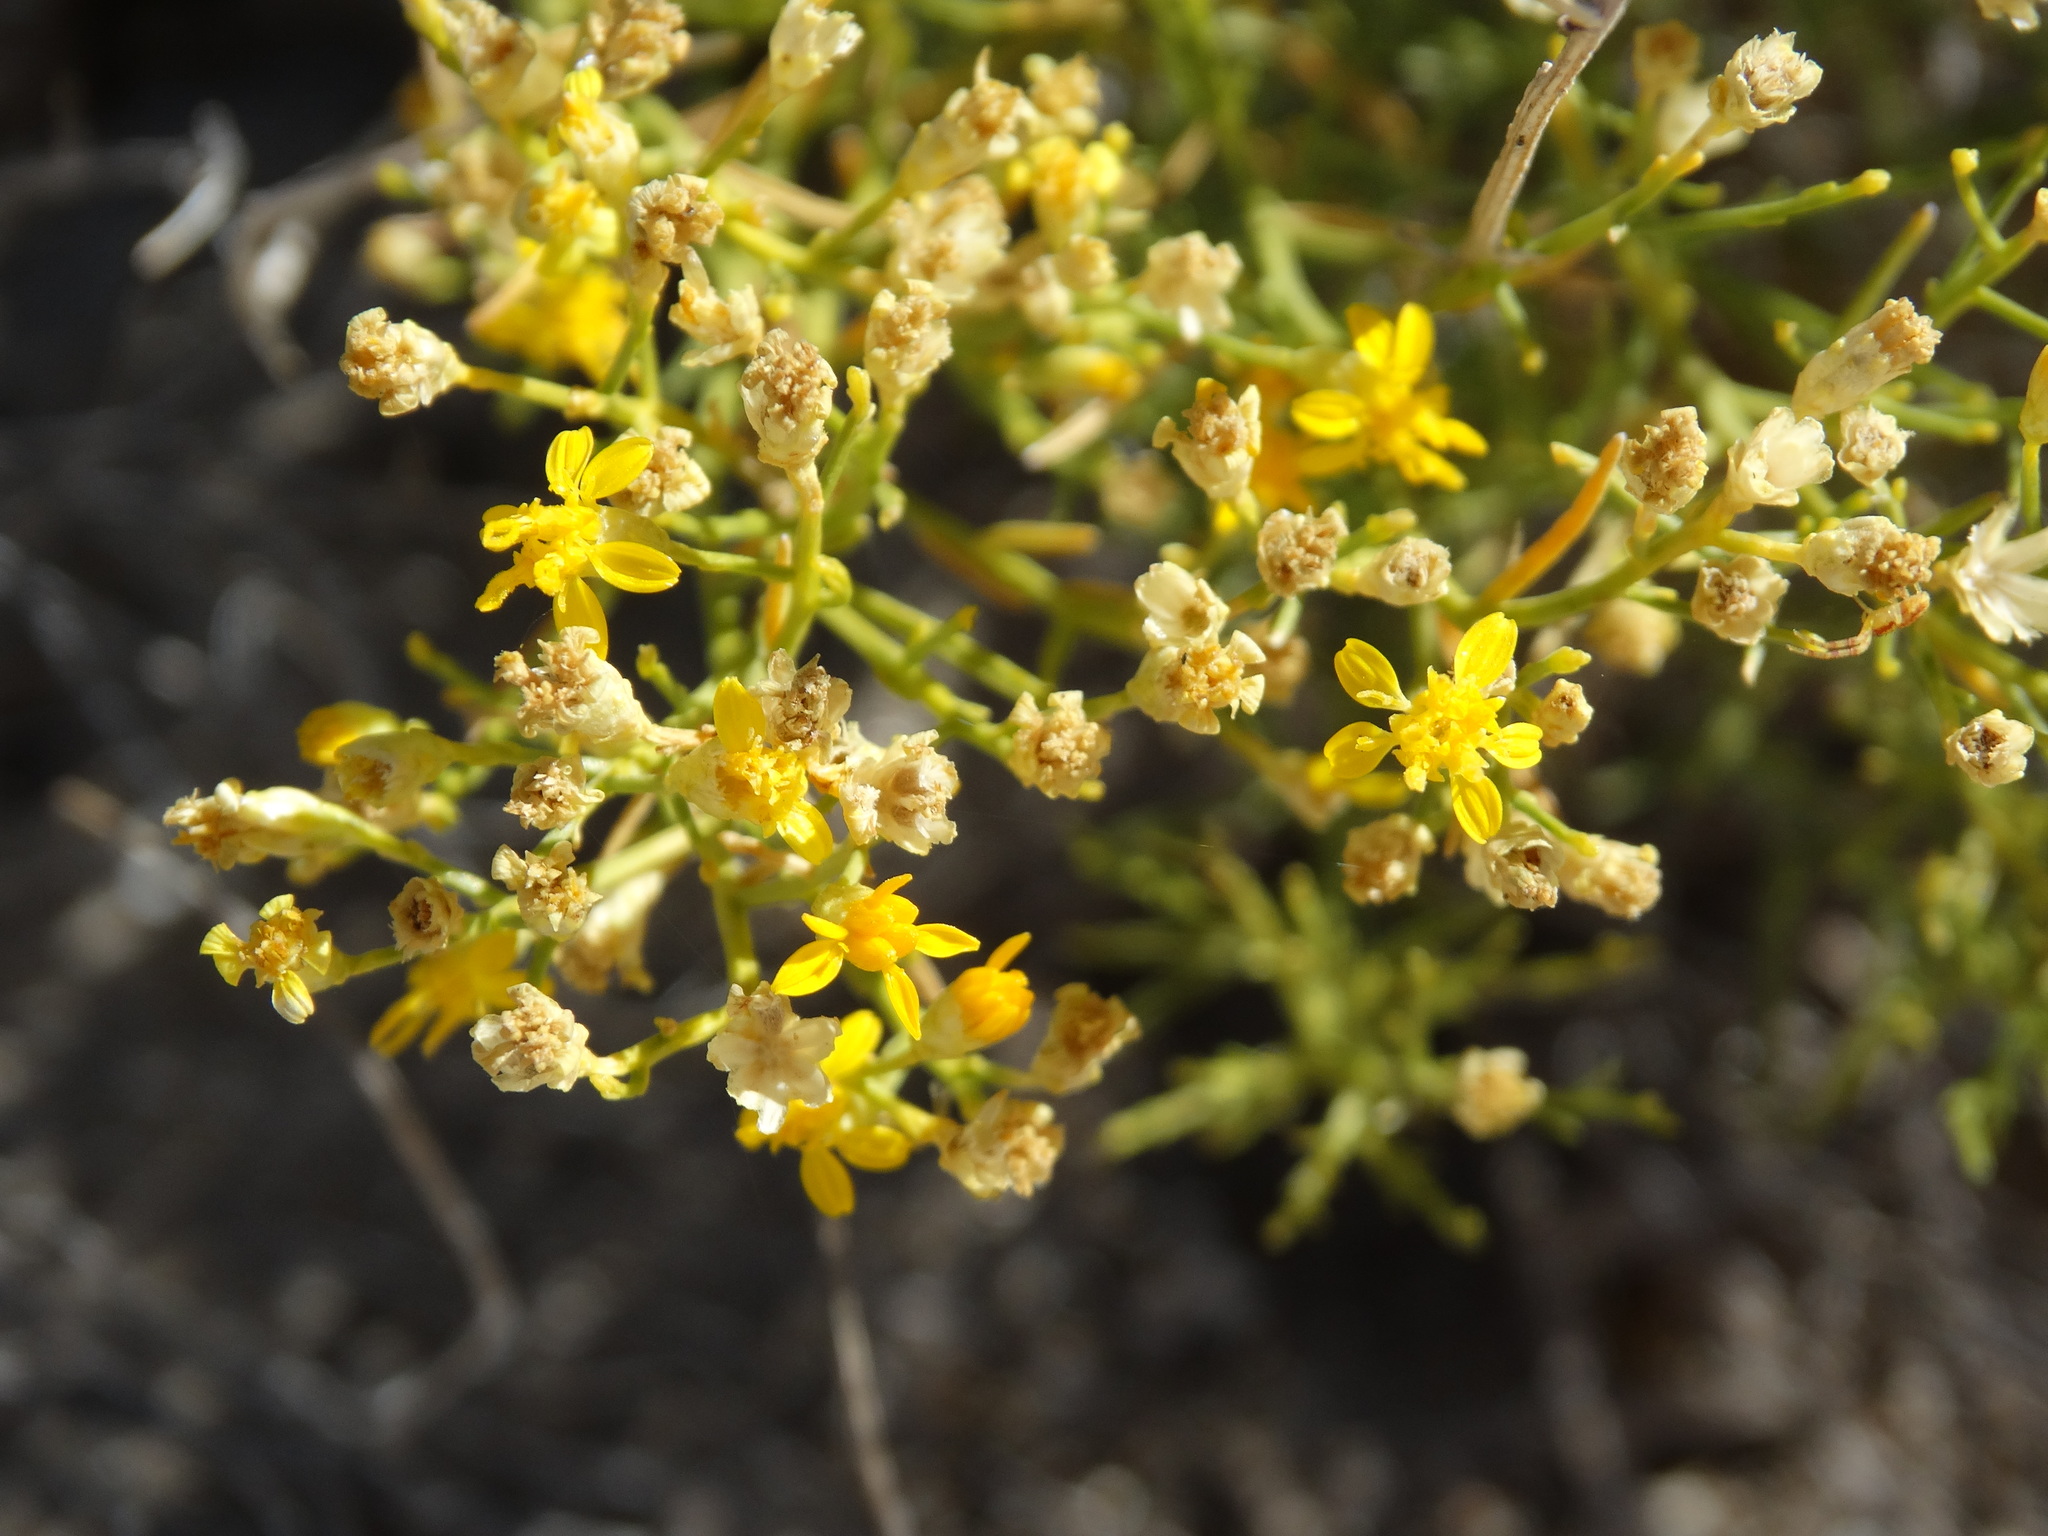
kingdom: Plantae
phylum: Tracheophyta
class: Magnoliopsida
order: Asterales
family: Asteraceae
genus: Gutierrezia
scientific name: Gutierrezia sarothrae
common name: Broom snakeweed
